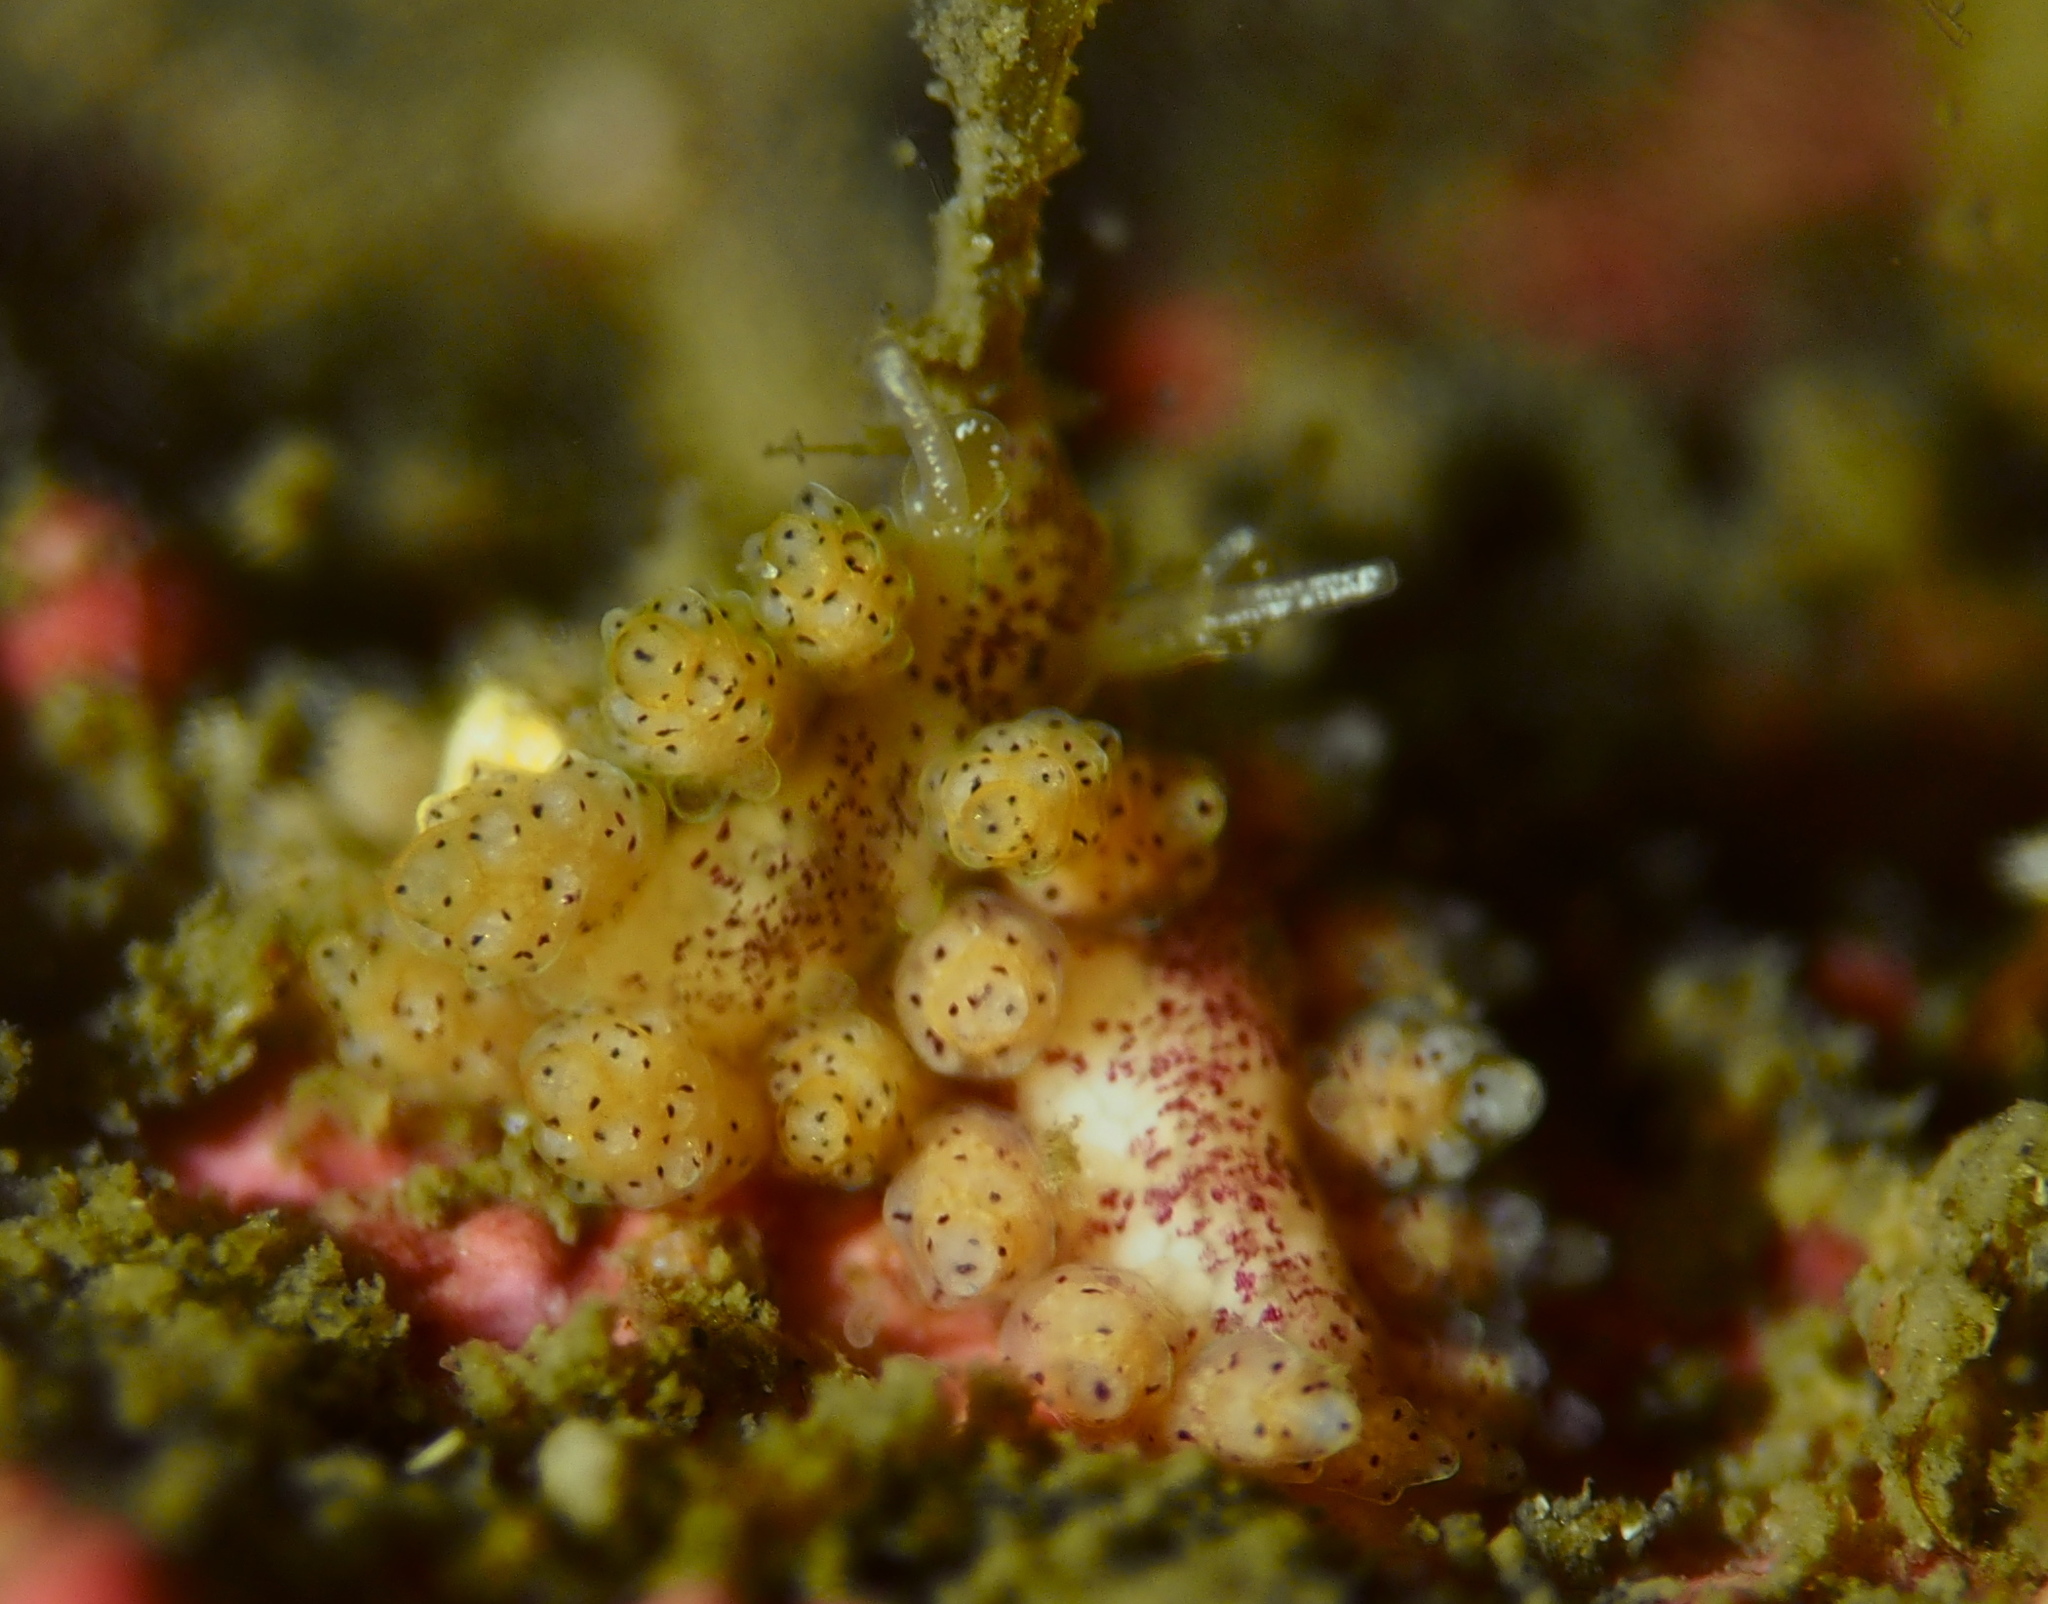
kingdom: Animalia
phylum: Mollusca
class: Gastropoda
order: Nudibranchia
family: Dotidae
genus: Doto
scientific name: Doto dunnei
